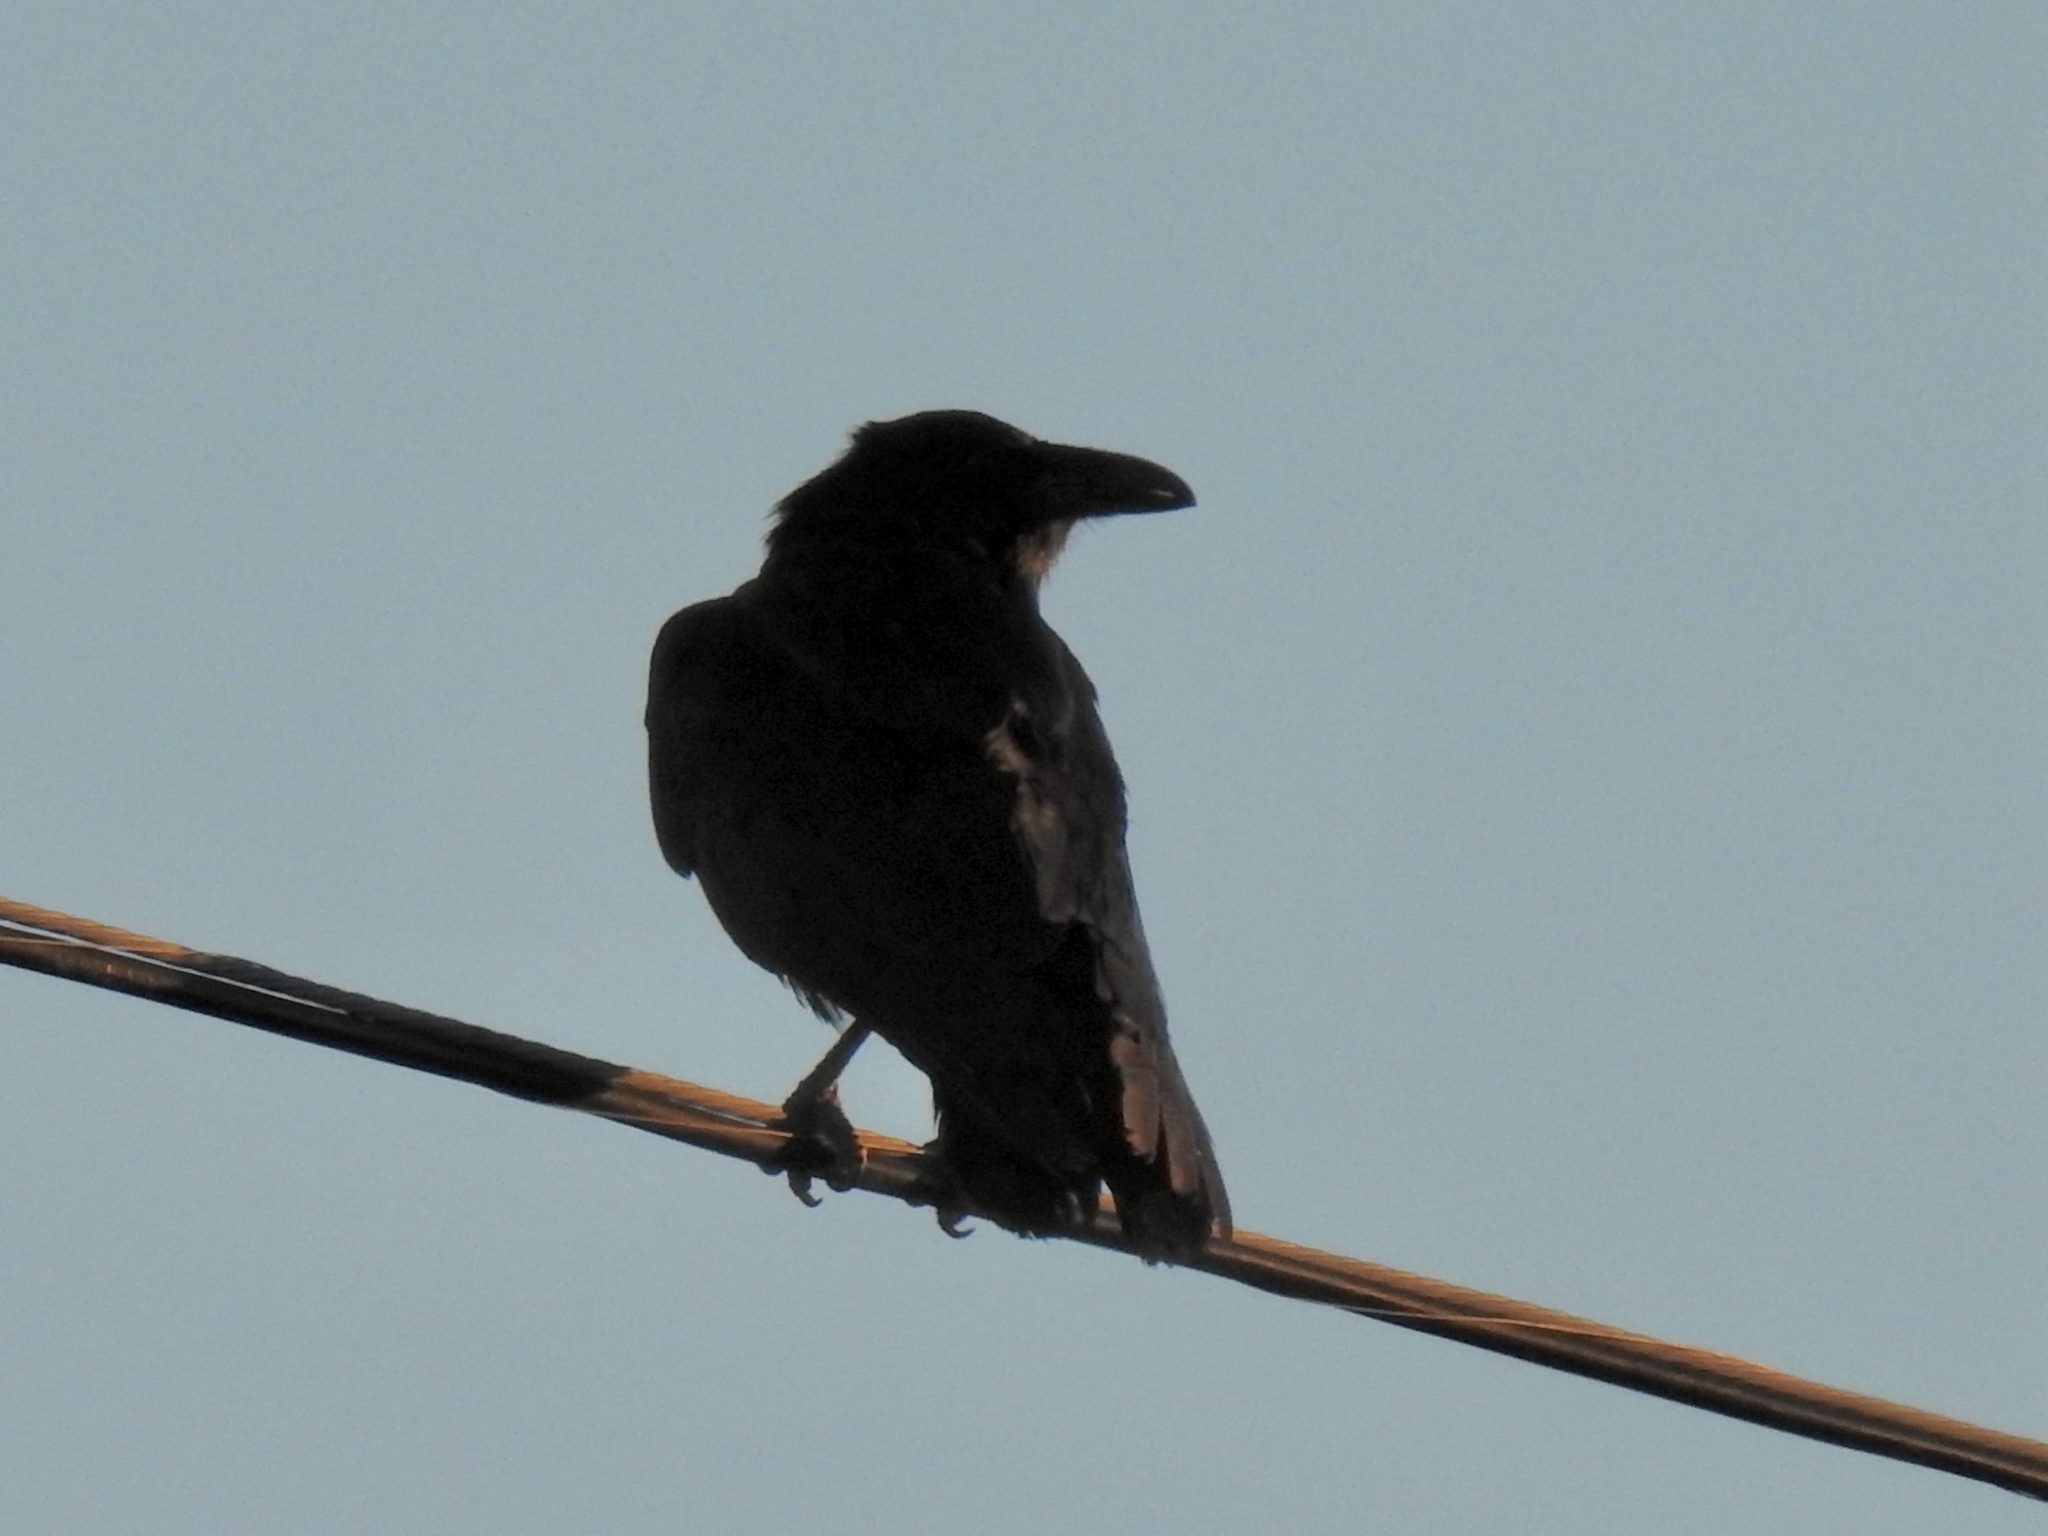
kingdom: Animalia
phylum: Chordata
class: Aves
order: Passeriformes
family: Corvidae
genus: Corvus
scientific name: Corvus corax
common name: Common raven
